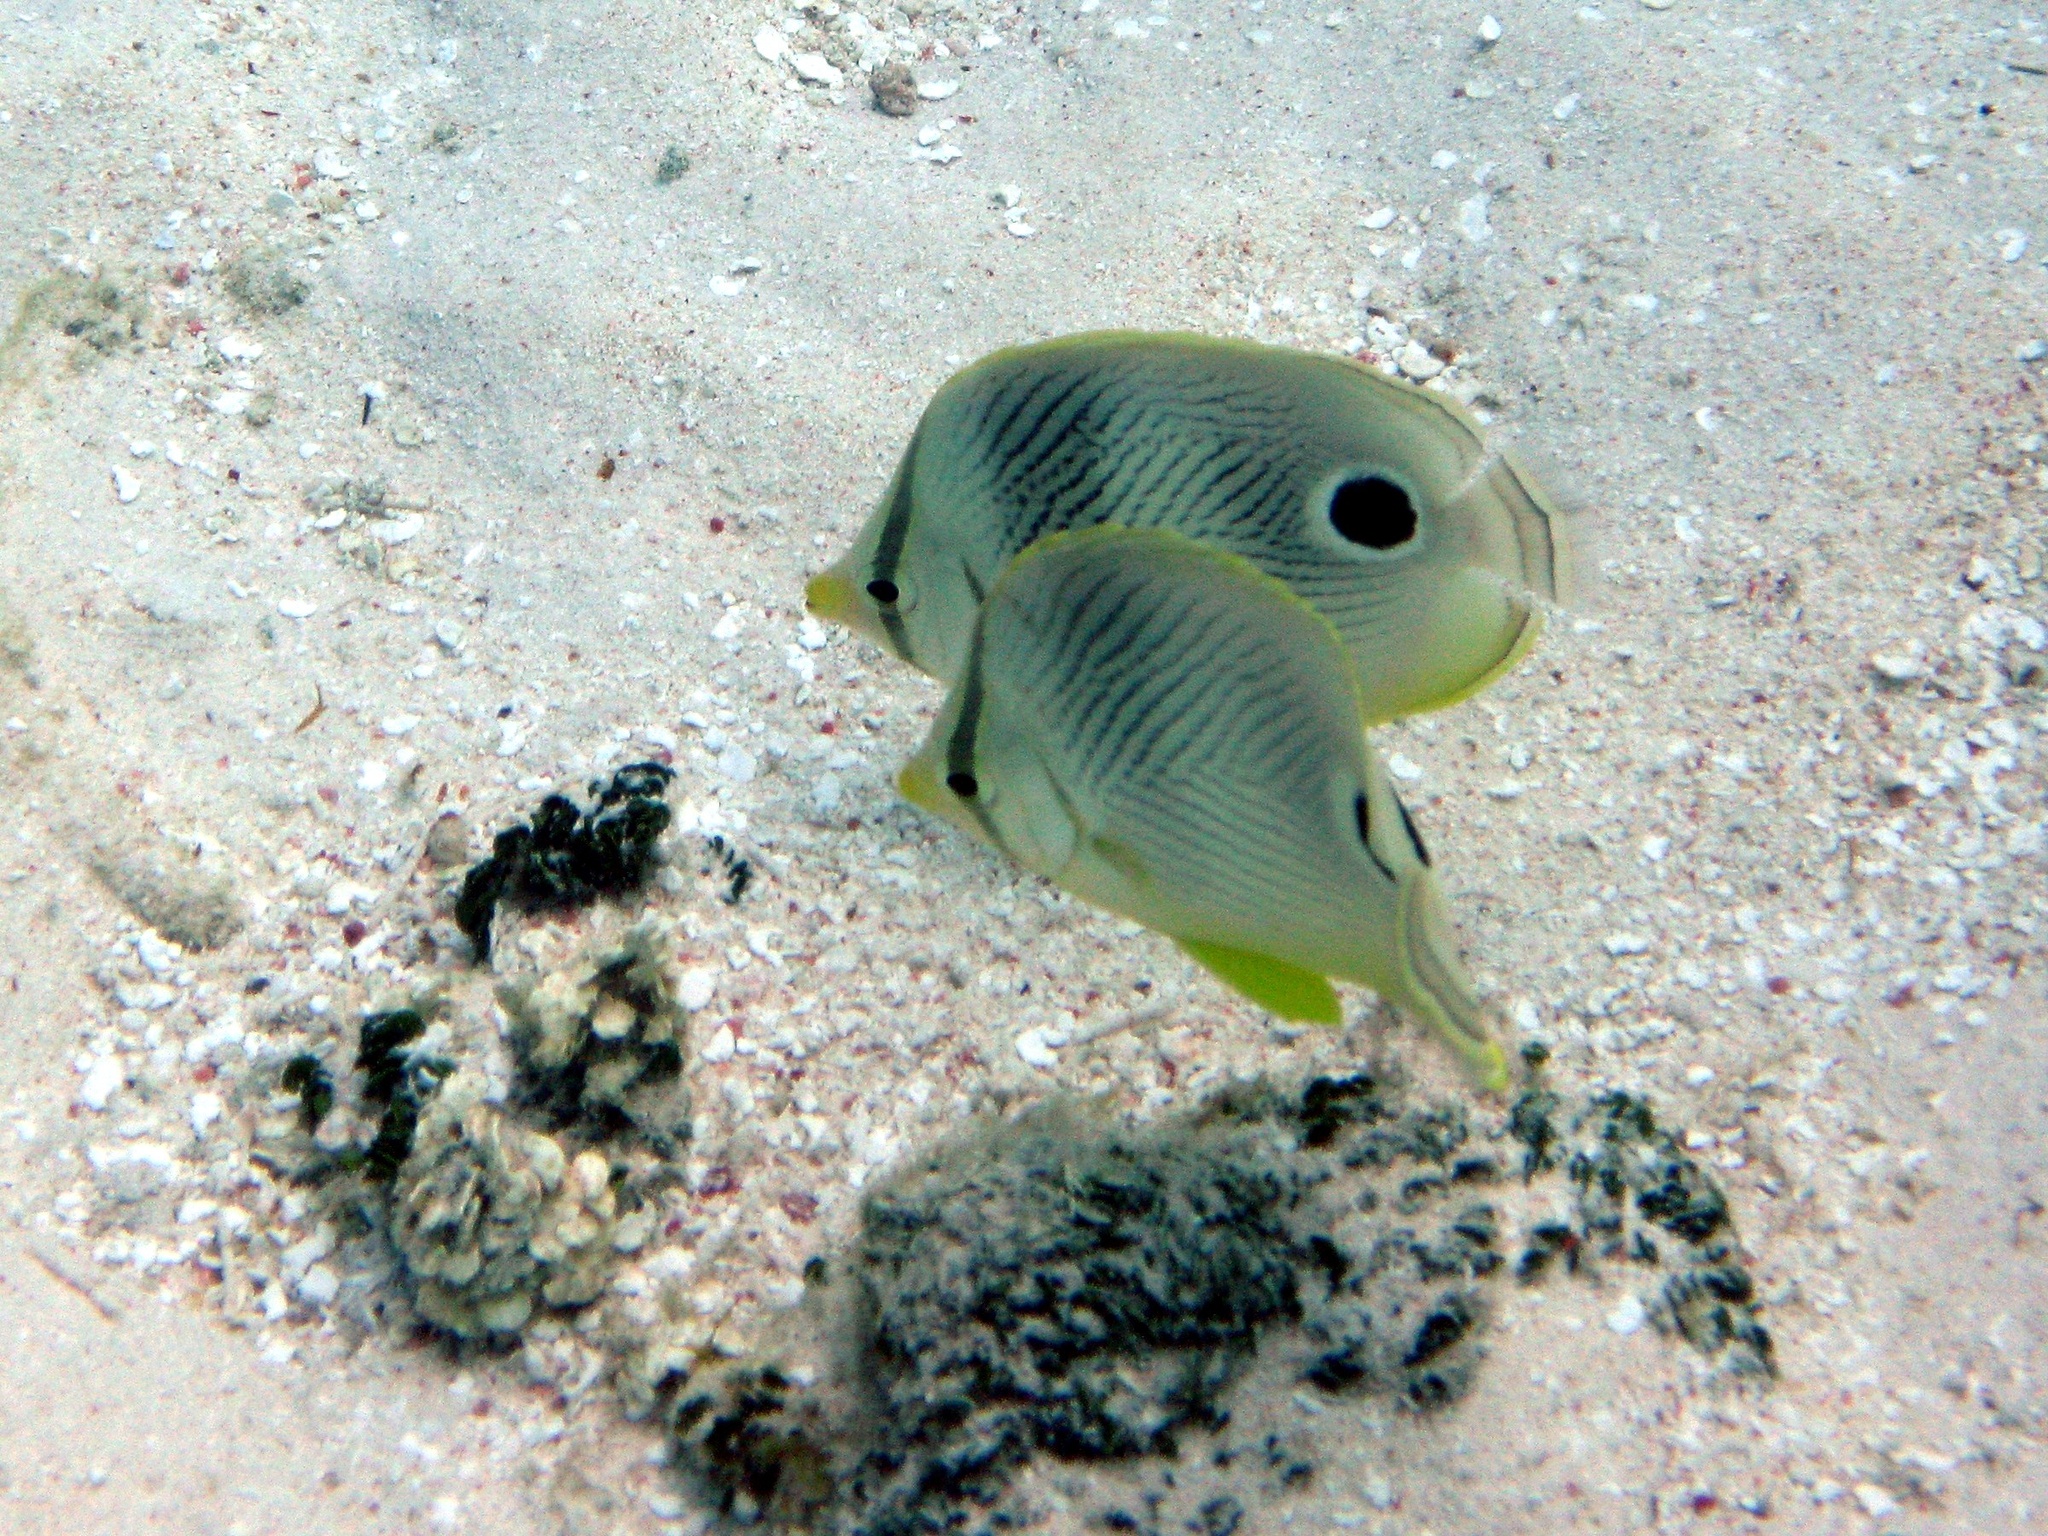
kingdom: Animalia
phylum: Chordata
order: Perciformes
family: Chaetodontidae
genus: Chaetodon
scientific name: Chaetodon capistratus
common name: Kete
